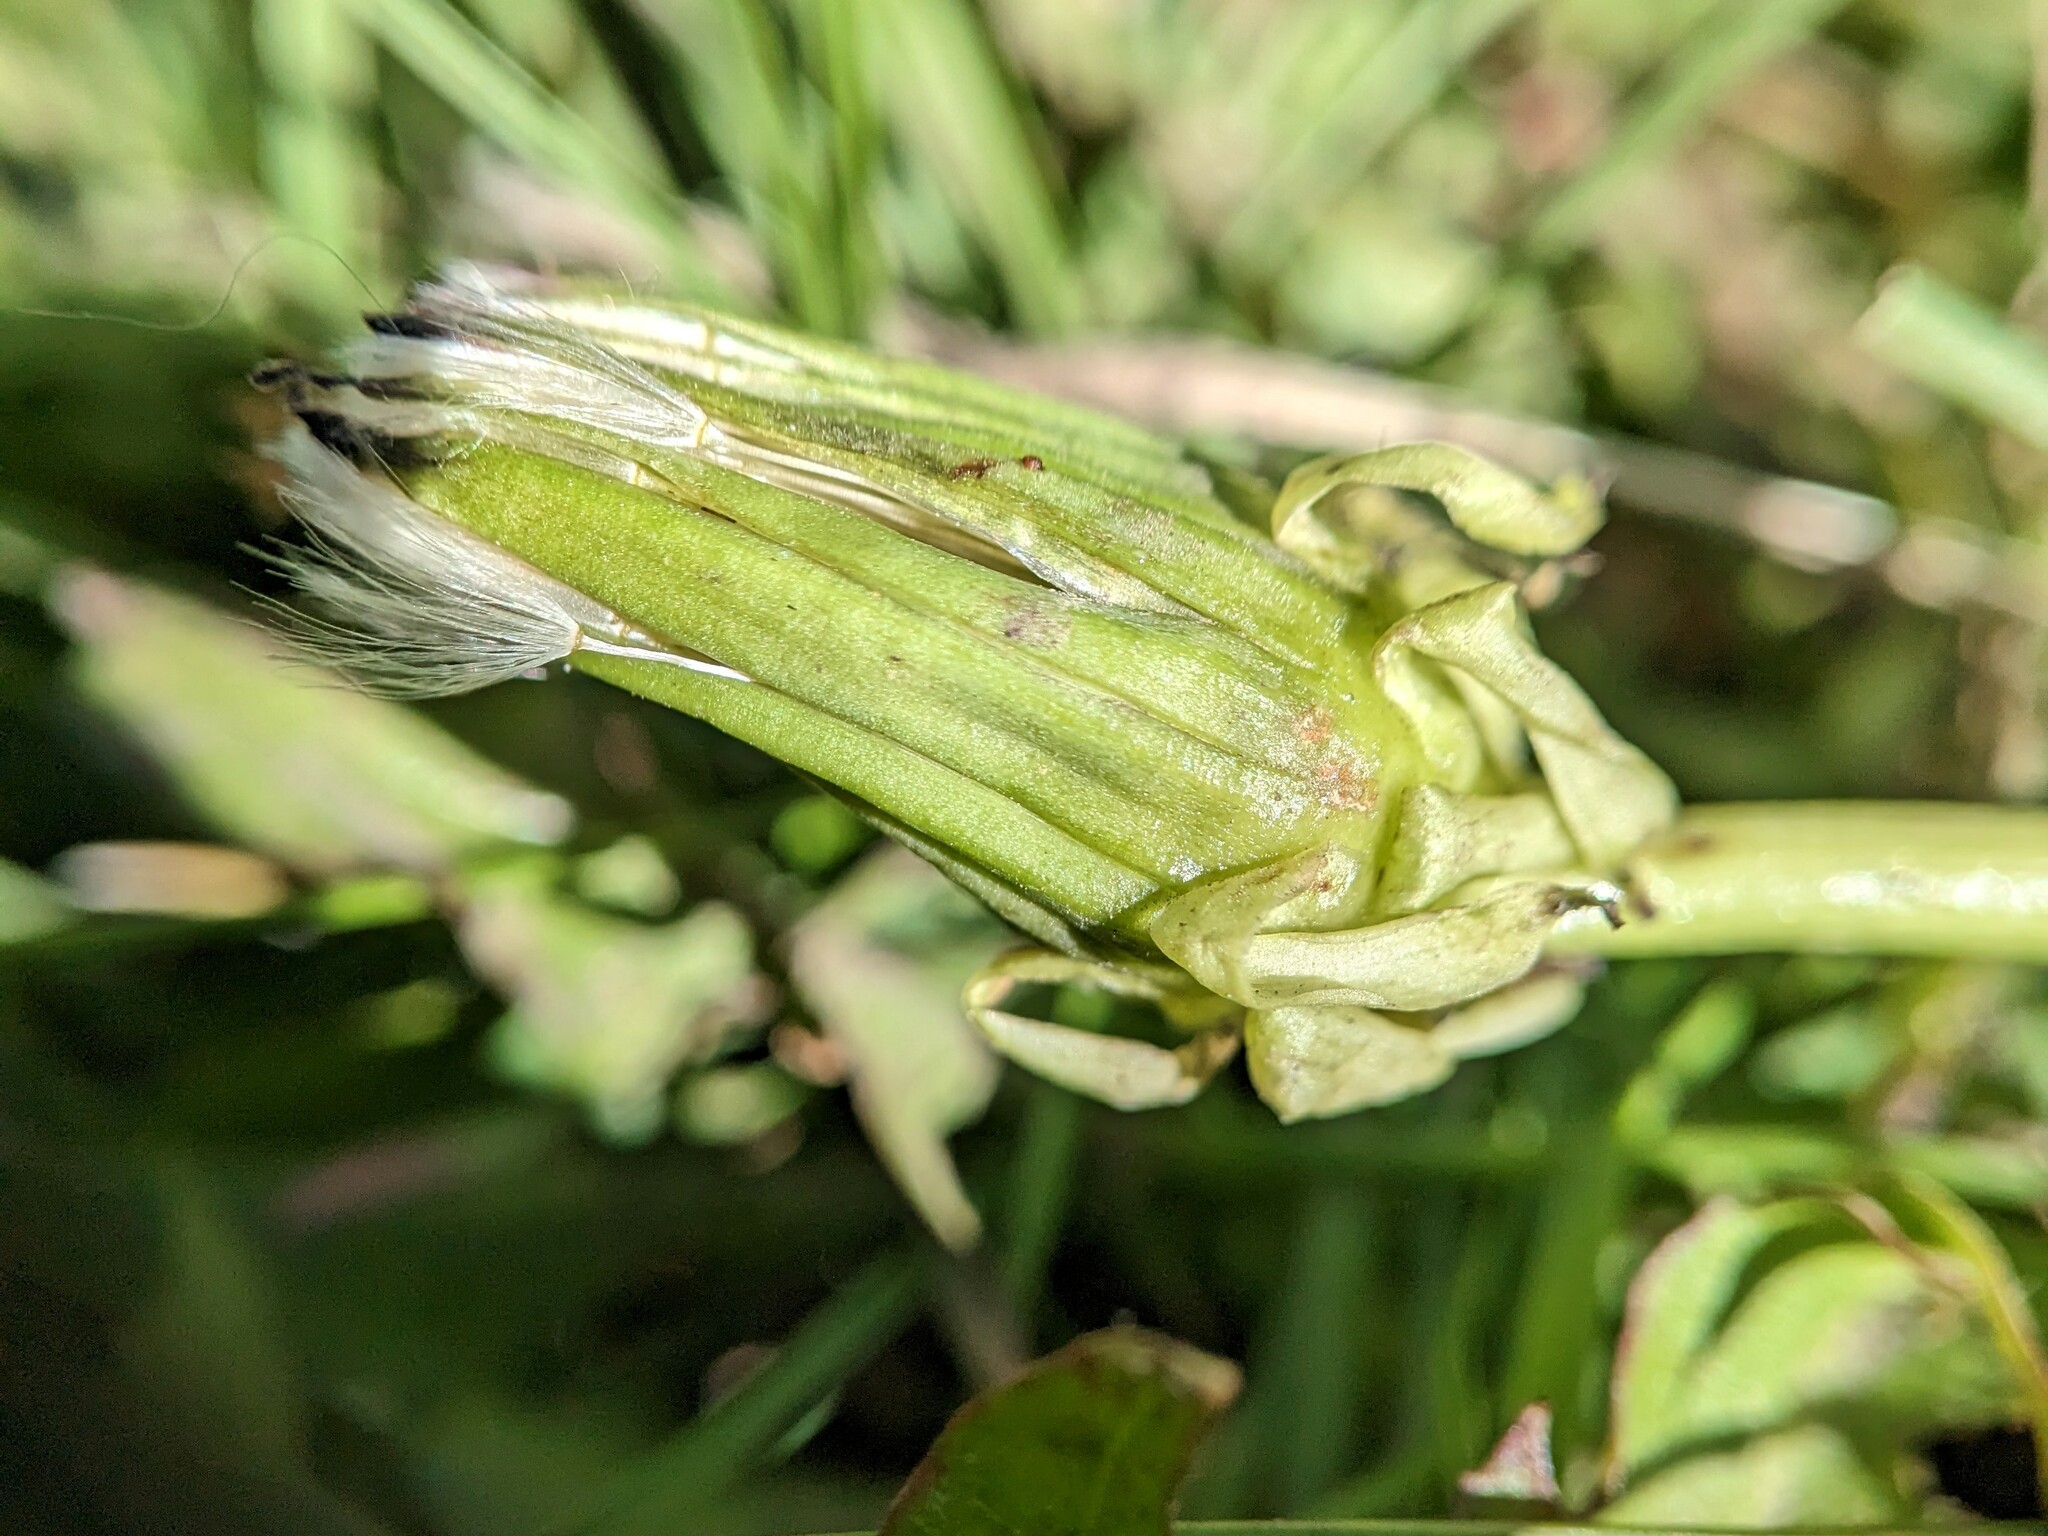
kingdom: Plantae
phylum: Tracheophyta
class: Magnoliopsida
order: Asterales
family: Asteraceae
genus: Taraxacum
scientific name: Taraxacum officinale
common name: Common dandelion
